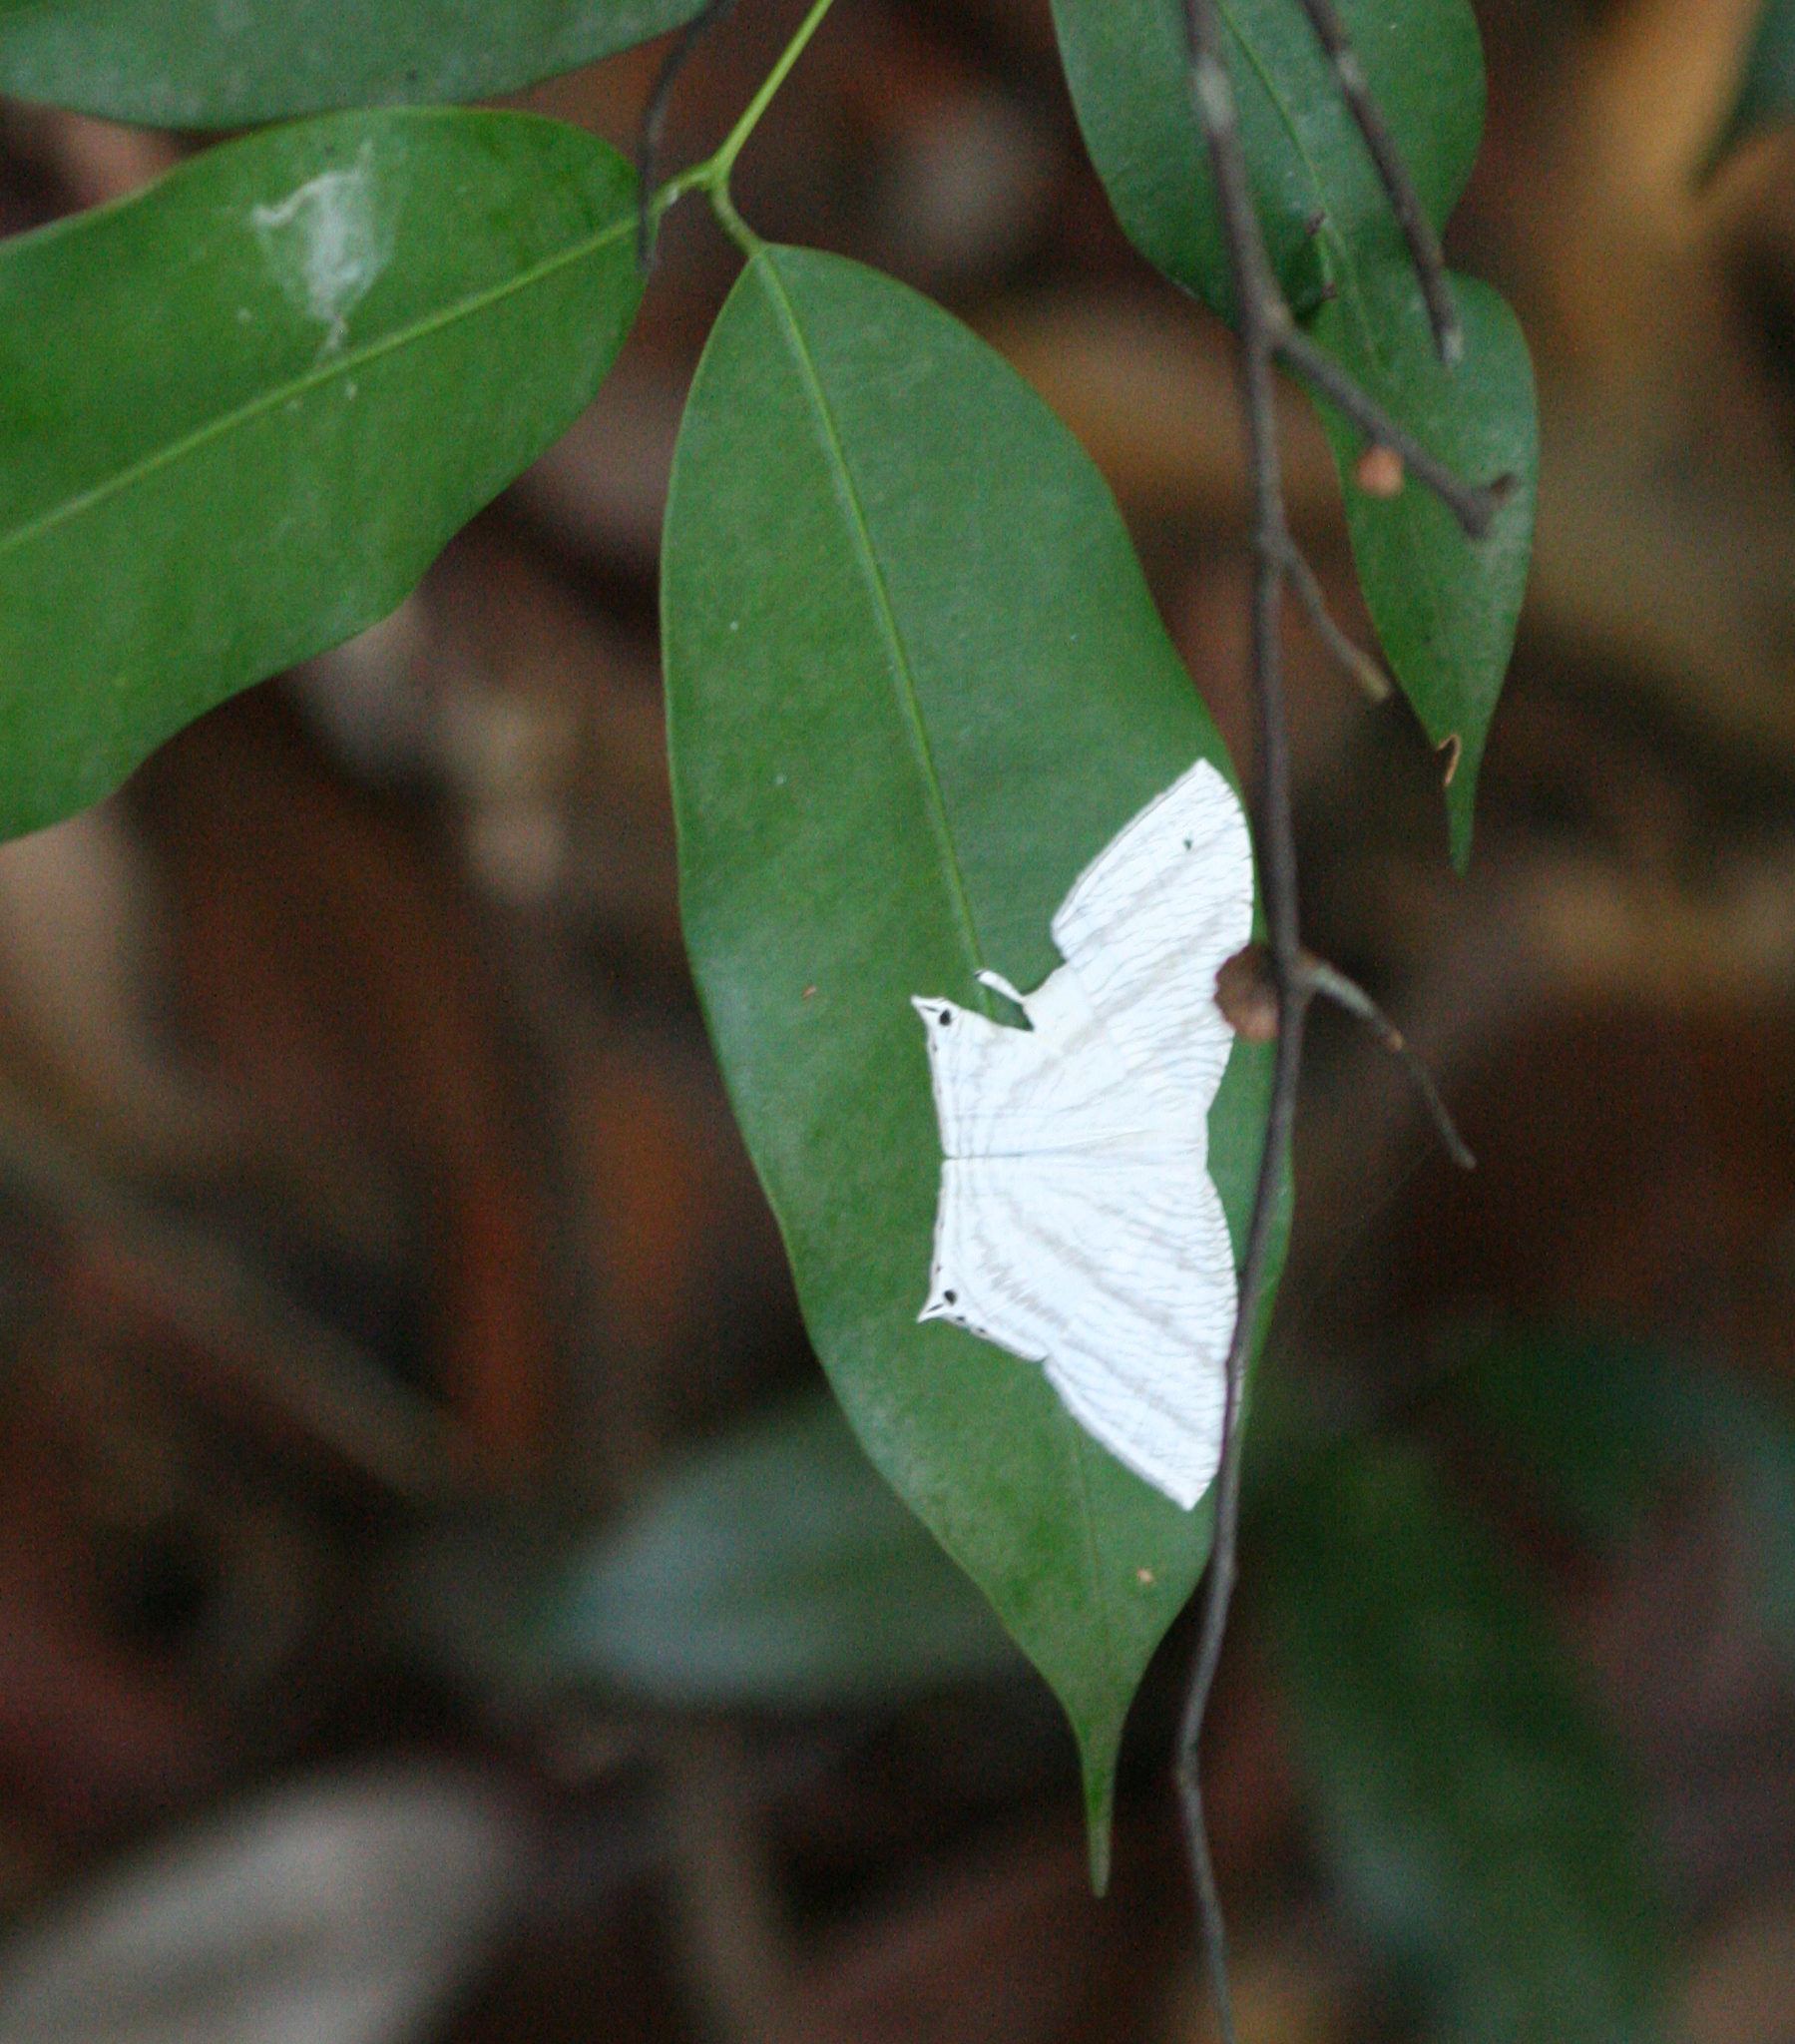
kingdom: Animalia
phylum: Arthropoda
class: Insecta
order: Lepidoptera
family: Uraniidae
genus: Micronia
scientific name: Micronia aculeata
